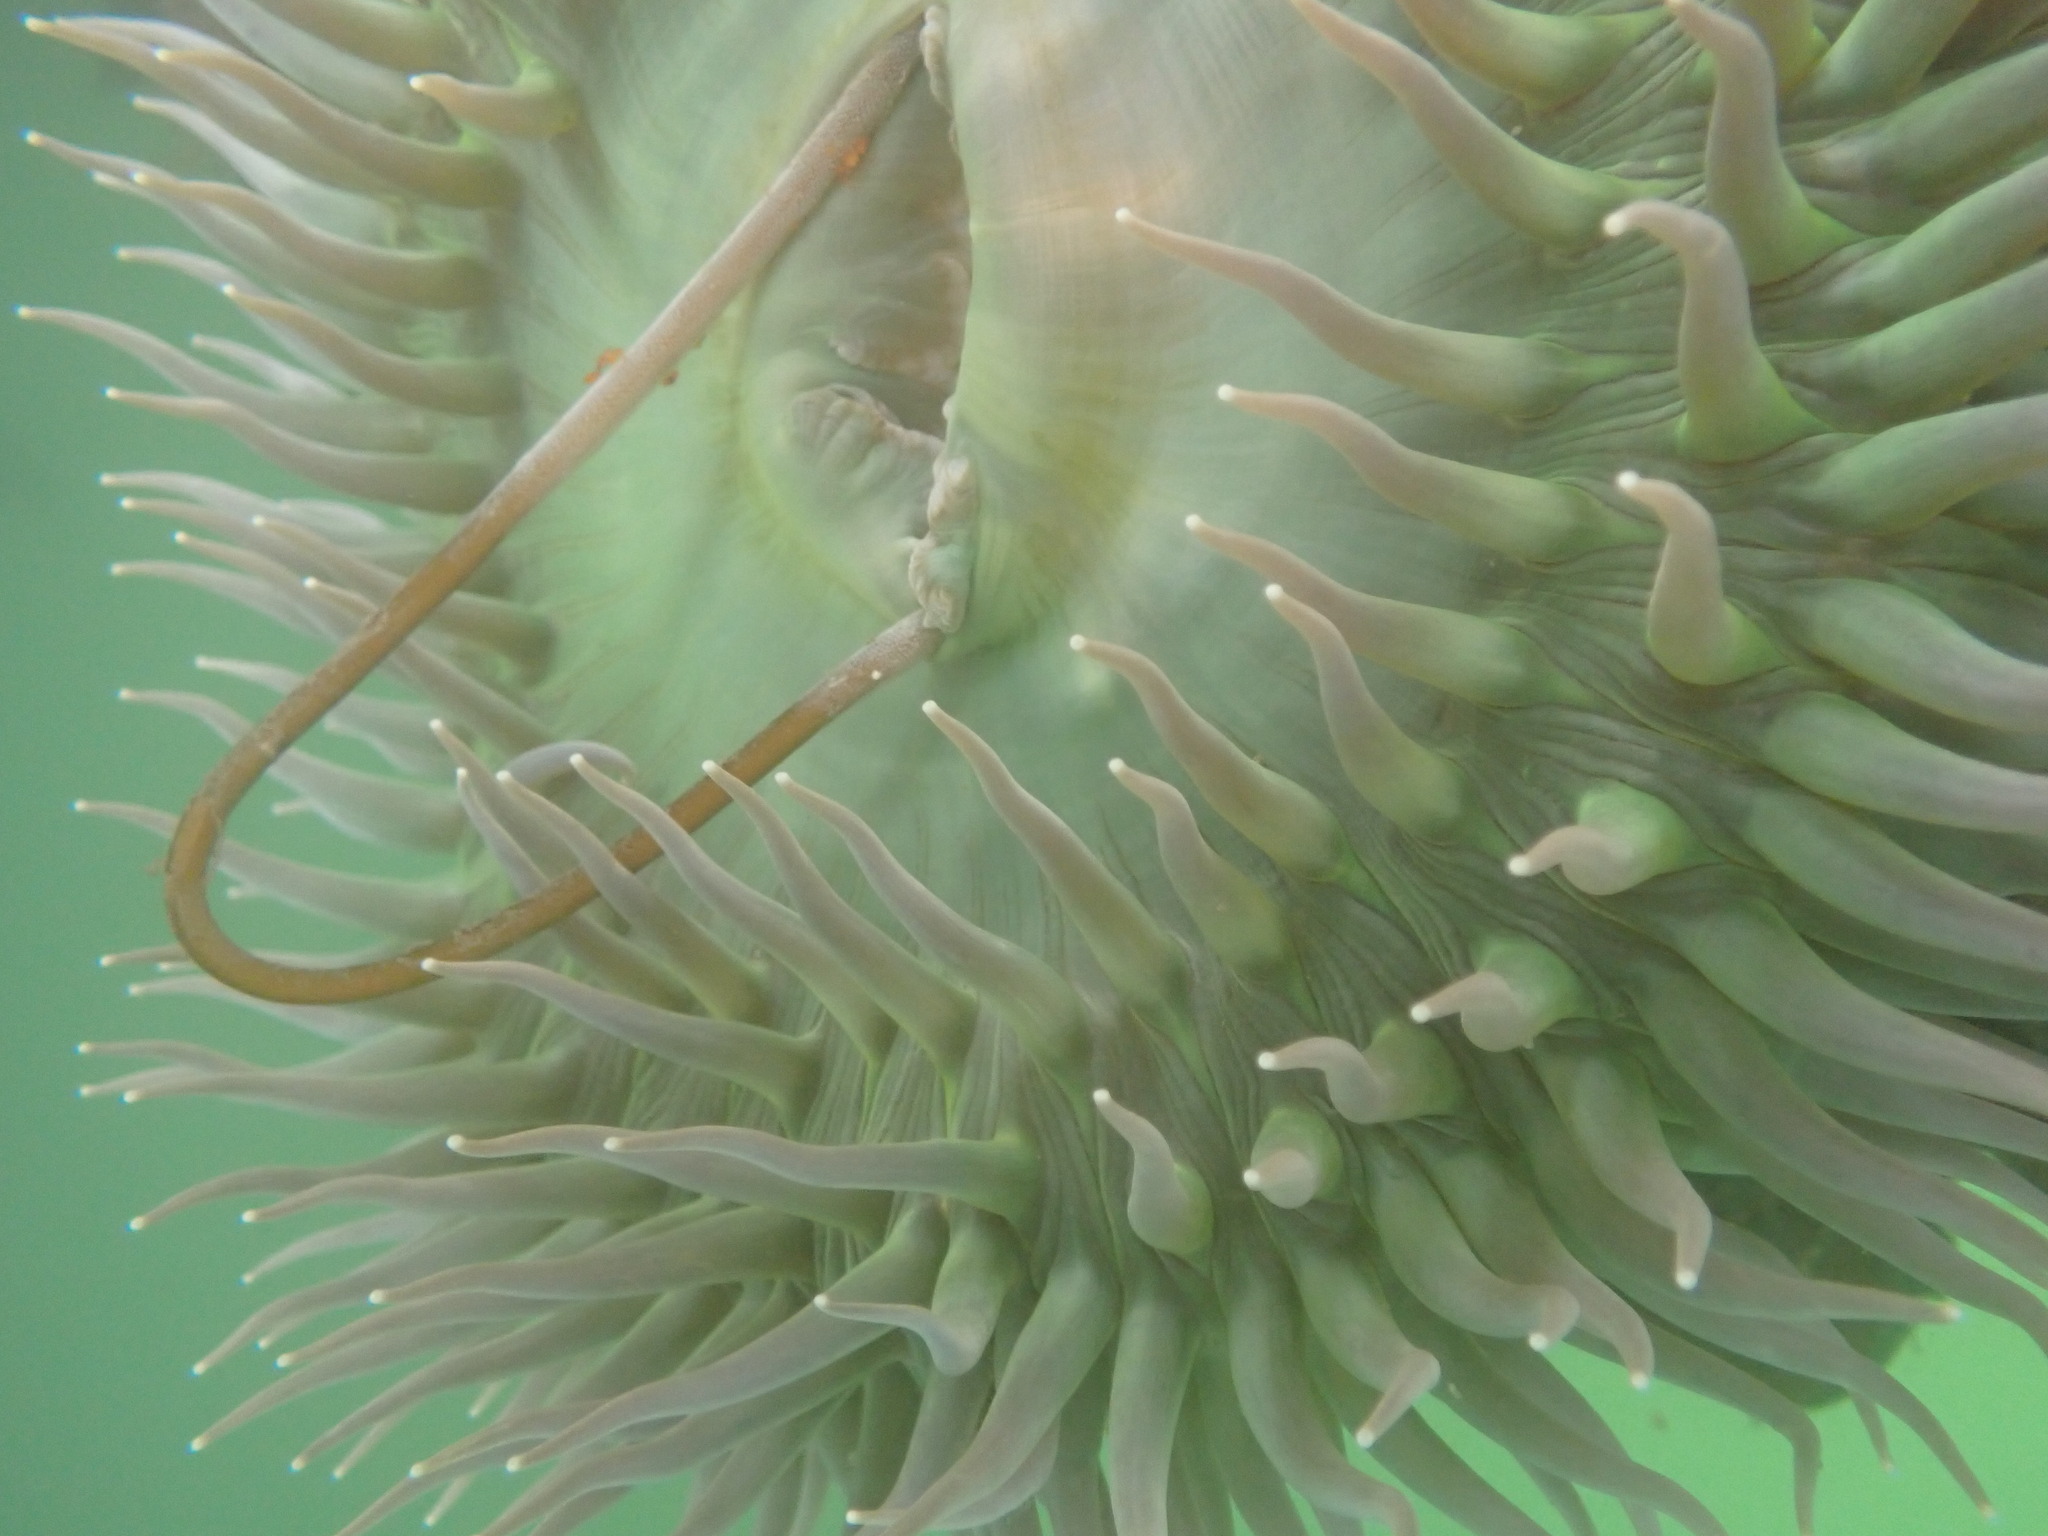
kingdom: Animalia
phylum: Cnidaria
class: Anthozoa
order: Actiniaria
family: Actiniidae
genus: Anthopleura
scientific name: Anthopleura xanthogrammica
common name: Giant green anemone
